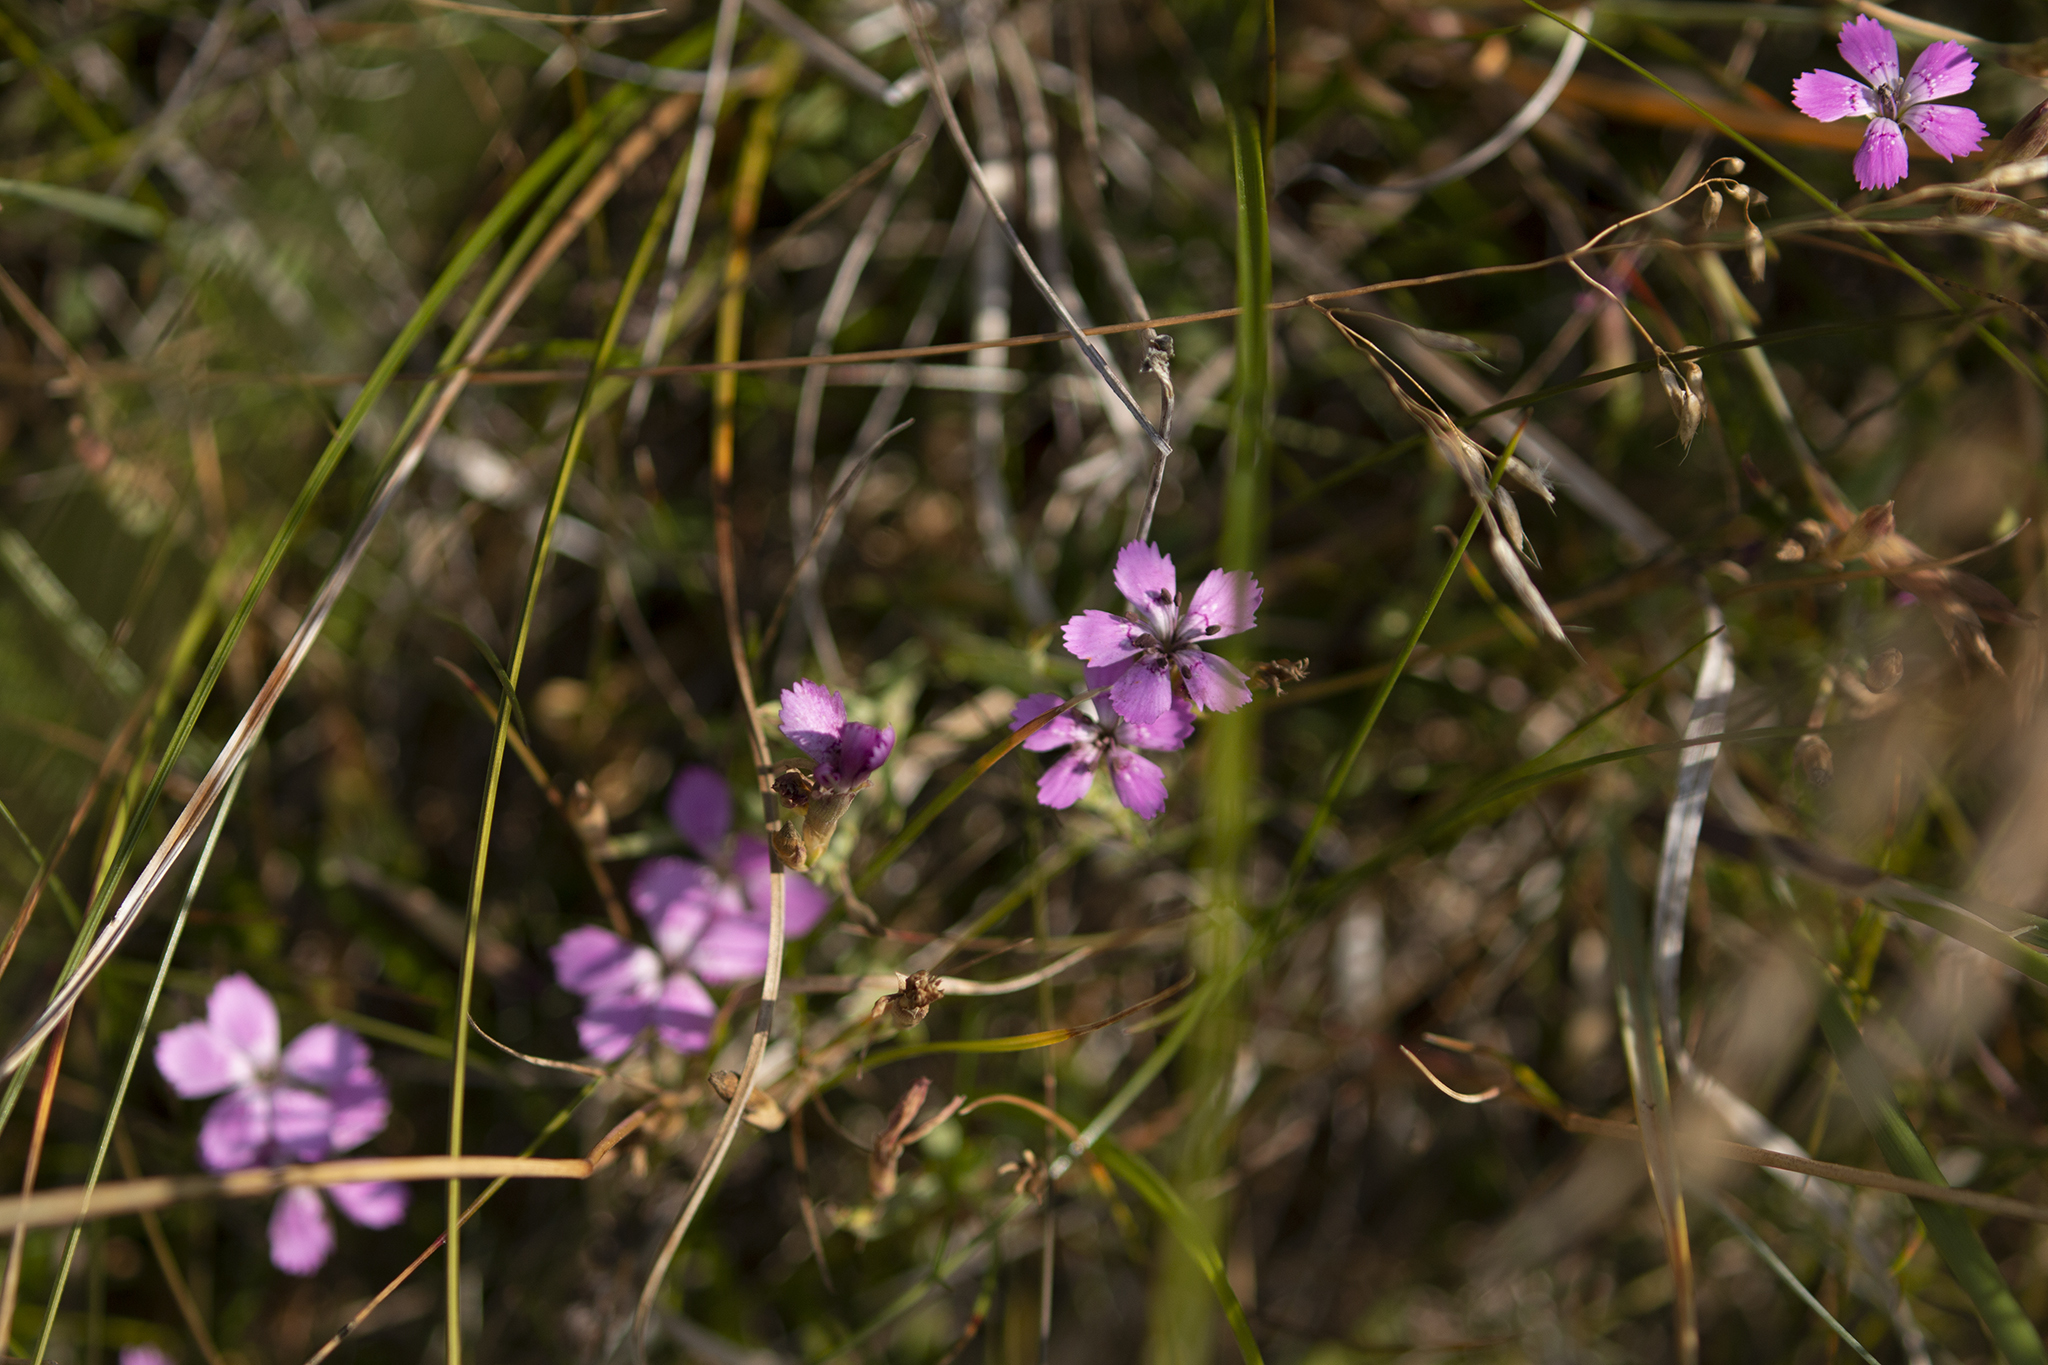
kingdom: Plantae
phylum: Tracheophyta
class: Magnoliopsida
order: Caryophyllales
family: Caryophyllaceae
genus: Dianthus
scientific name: Dianthus deltoides
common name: Maiden pink
